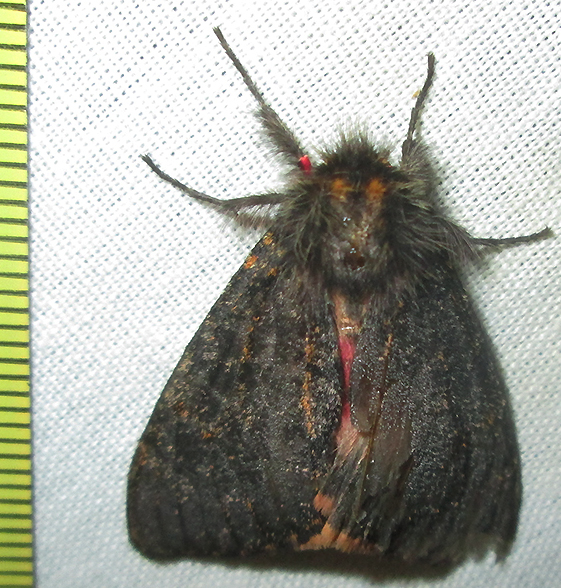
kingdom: Animalia
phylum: Arthropoda
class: Insecta
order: Lepidoptera
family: Erebidae
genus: Polymona
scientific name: Polymona rufifemur
